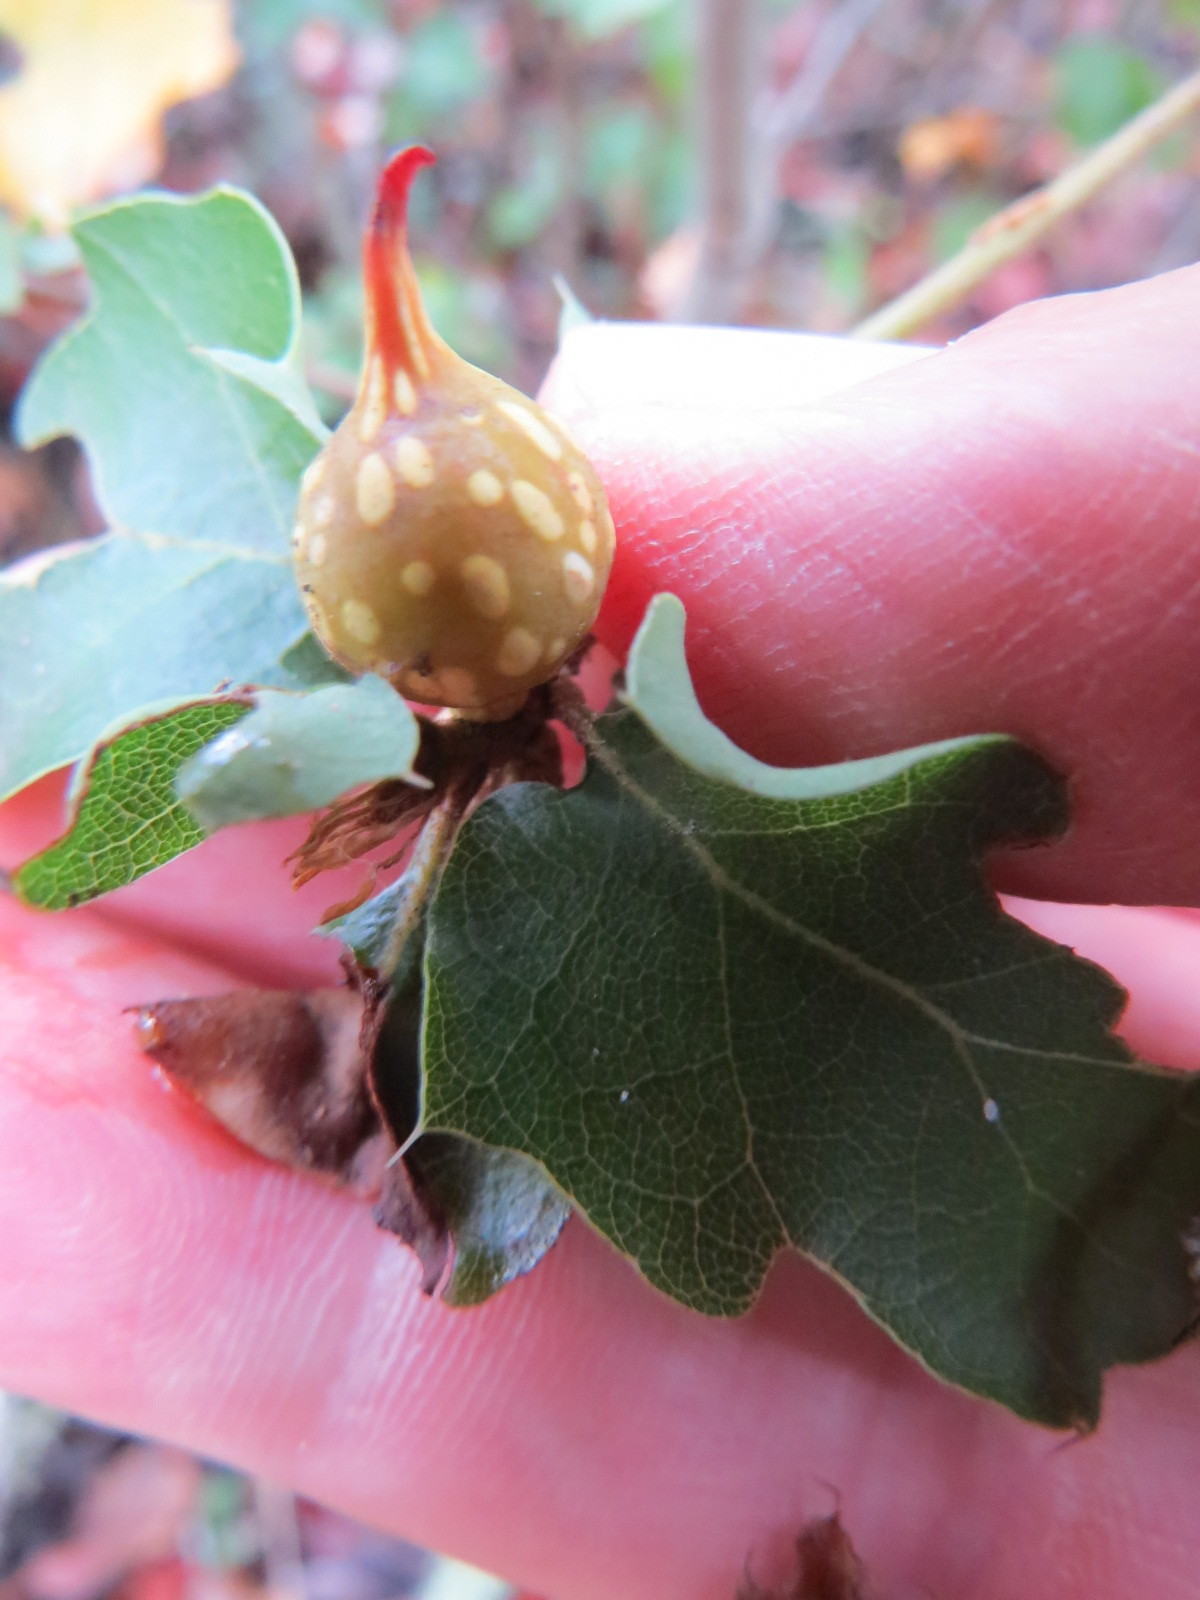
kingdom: Animalia
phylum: Arthropoda
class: Insecta
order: Hymenoptera
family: Cynipidae
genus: Burnettweldia
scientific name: Burnettweldia
